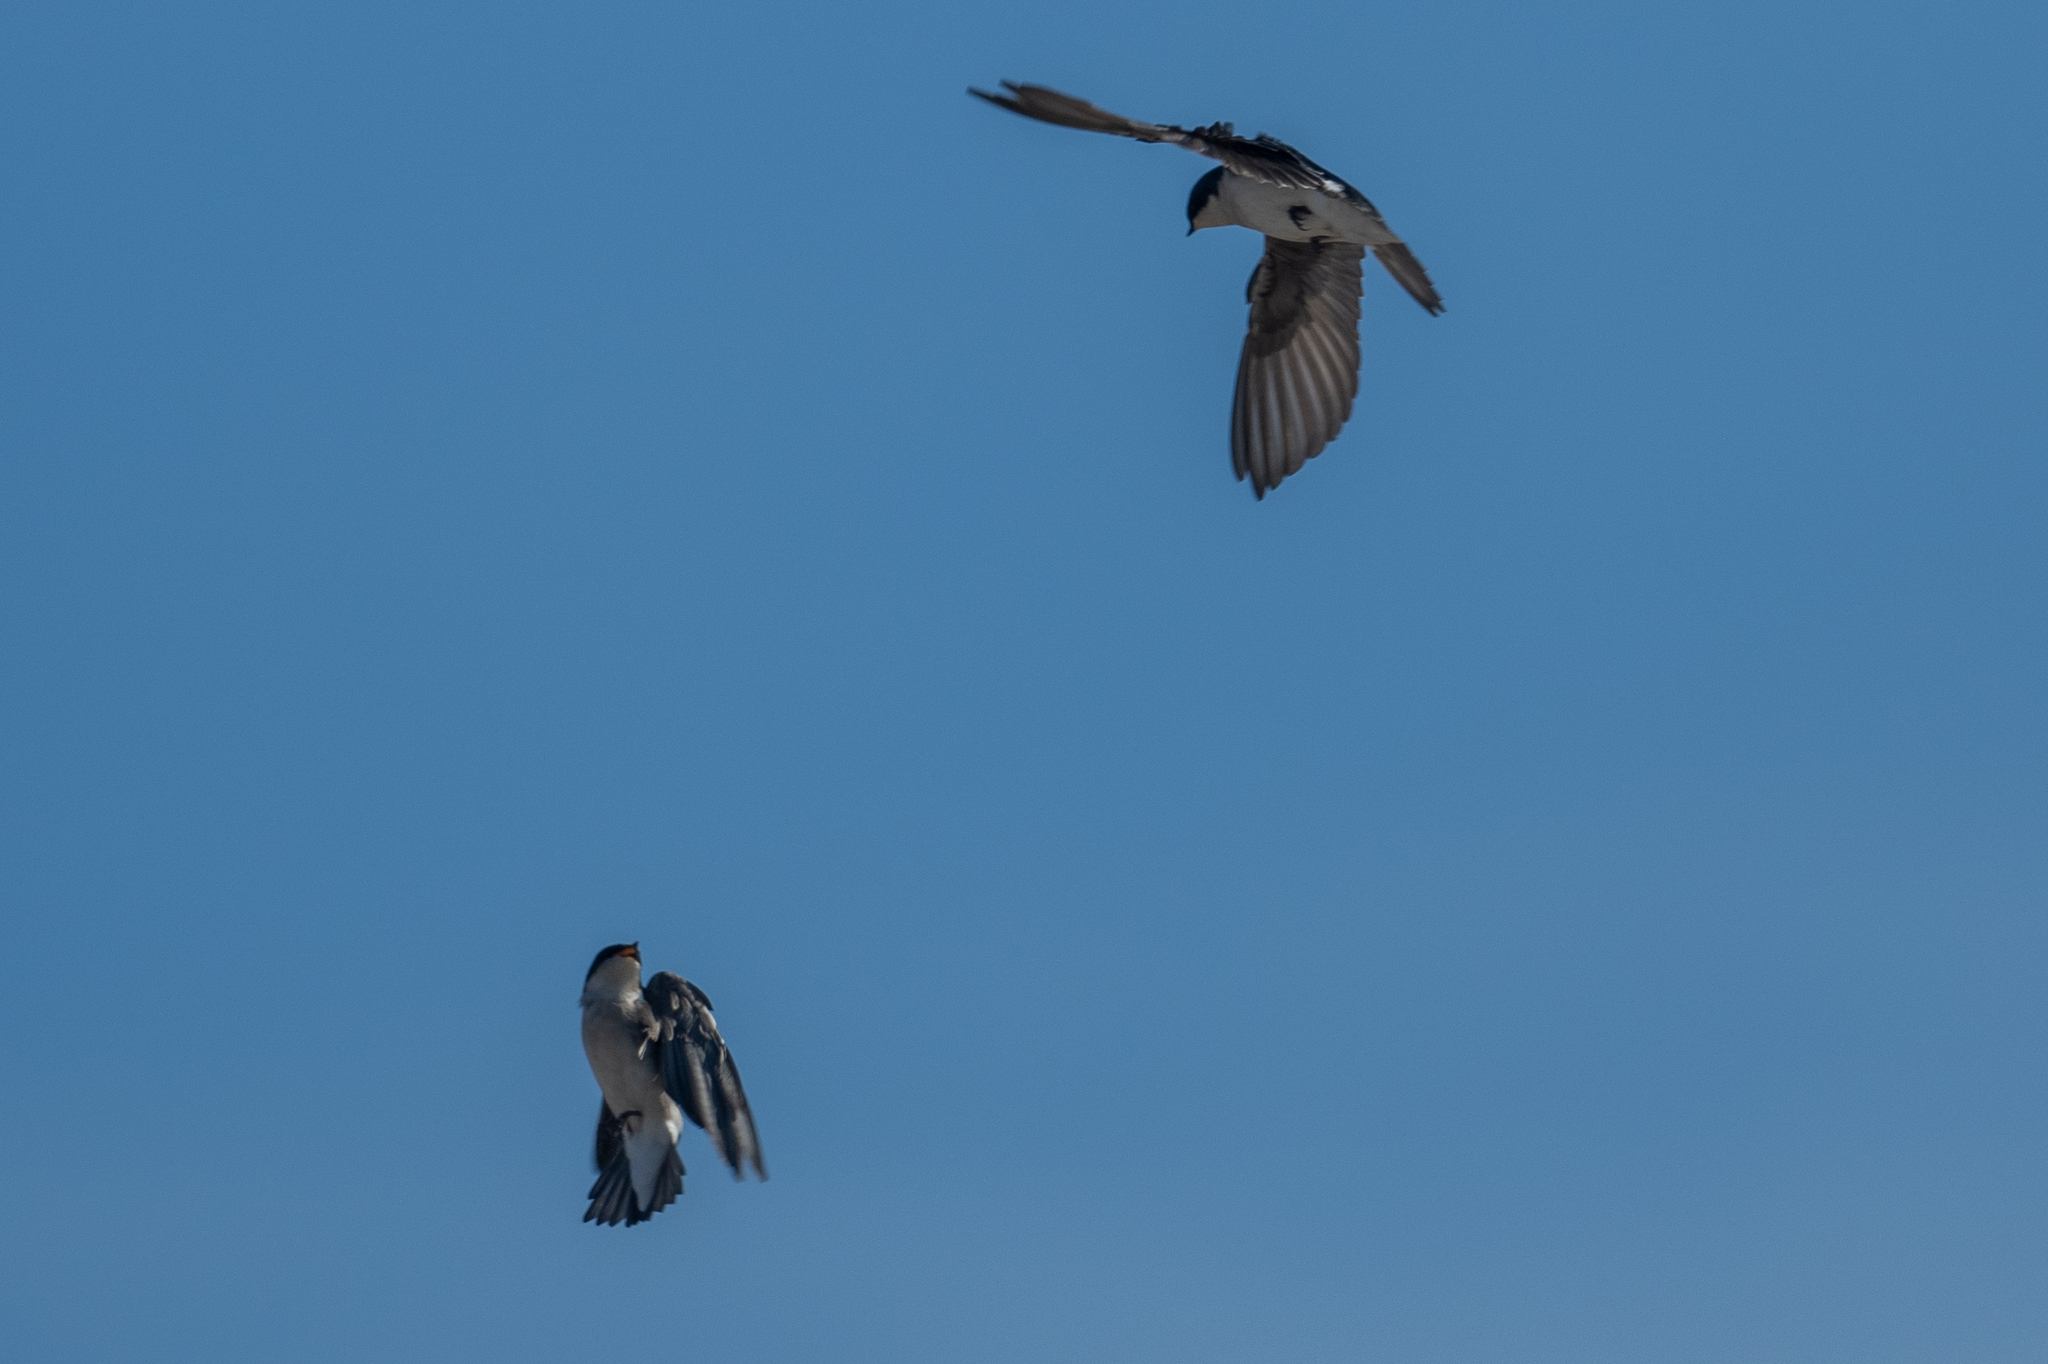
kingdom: Animalia
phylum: Chordata
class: Aves
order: Passeriformes
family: Hirundinidae
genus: Tachycineta
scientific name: Tachycineta bicolor
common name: Tree swallow
